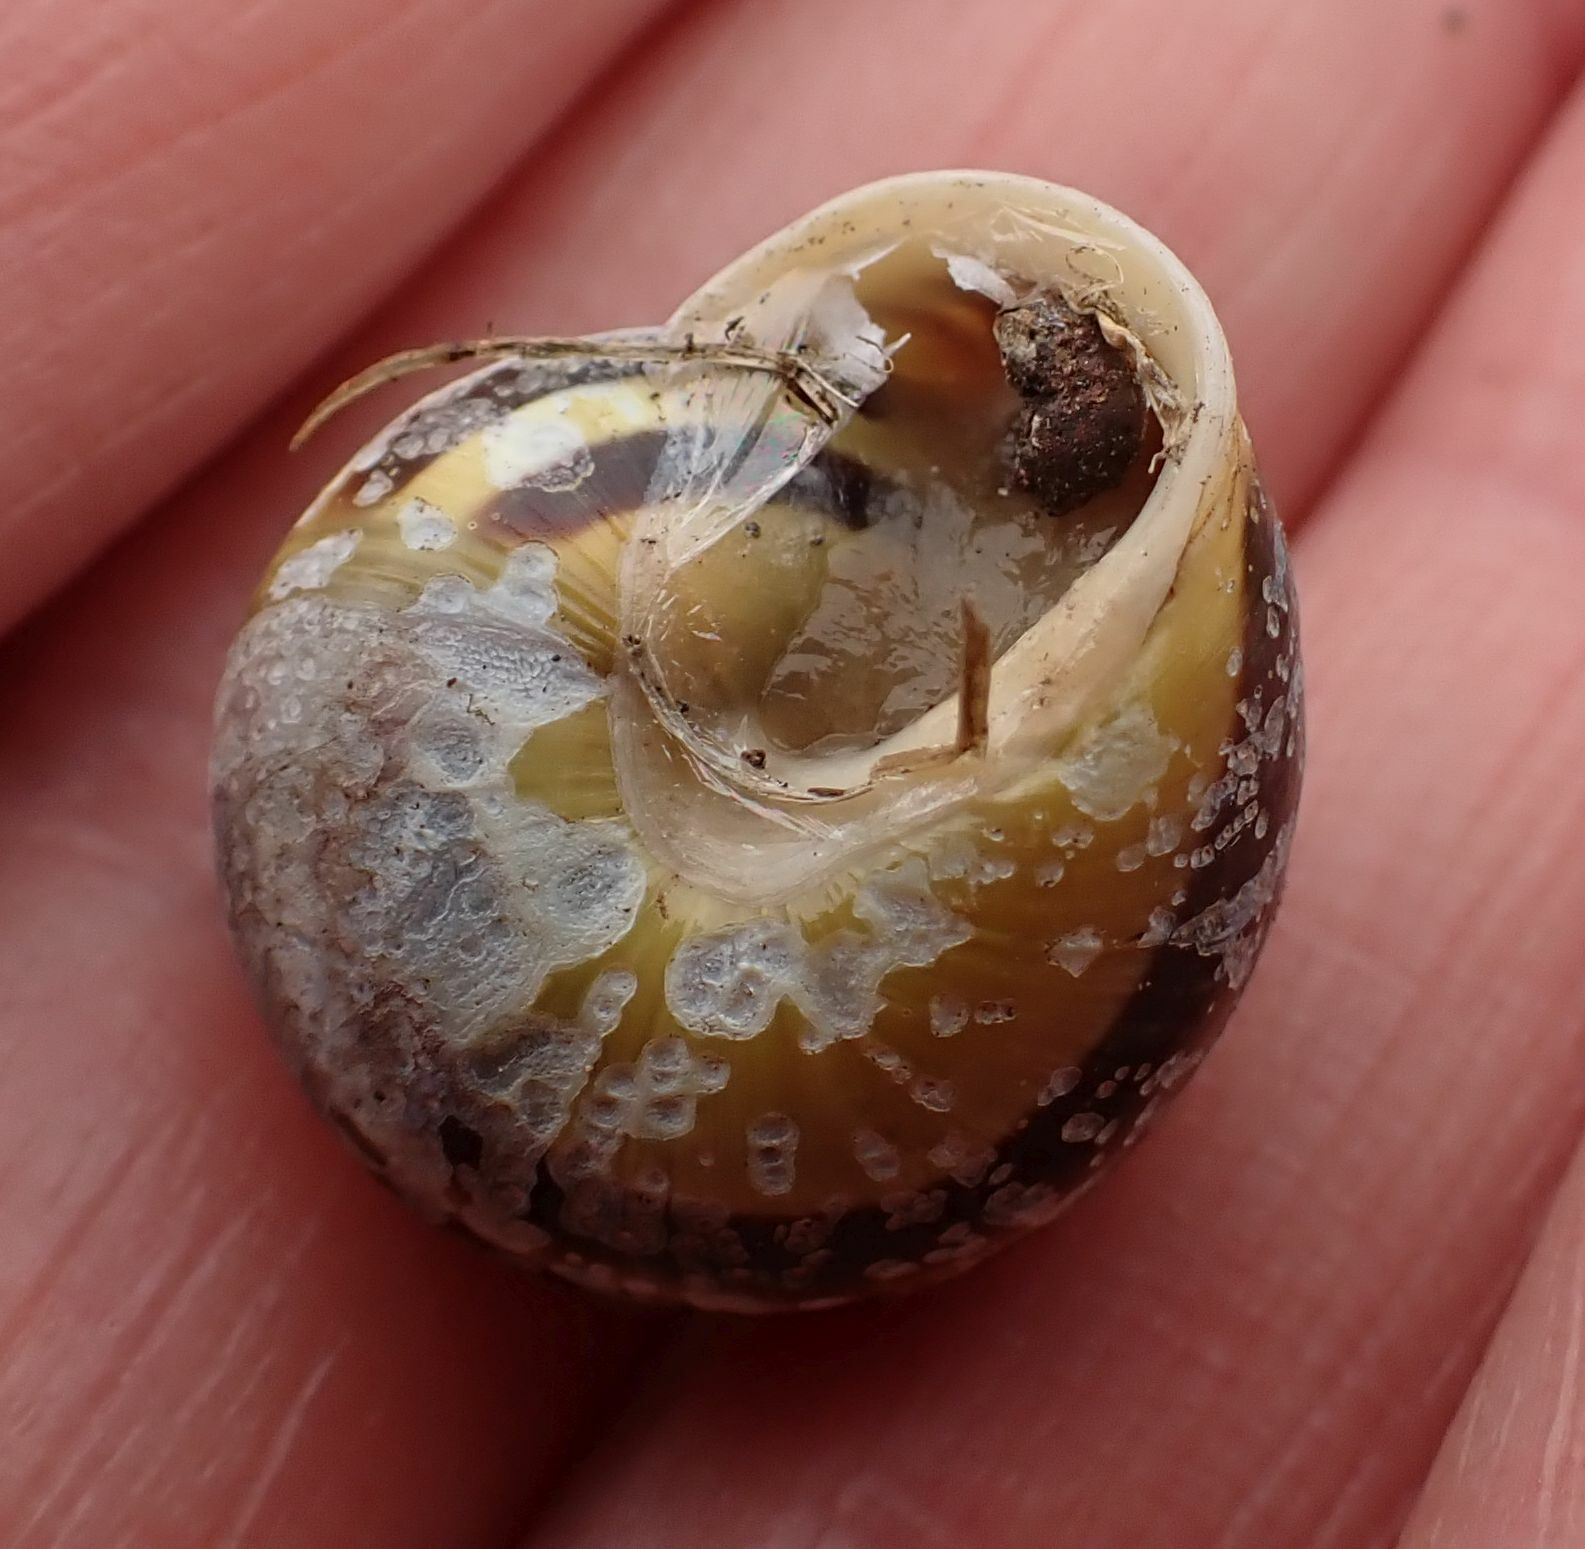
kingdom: Animalia
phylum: Mollusca
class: Gastropoda
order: Stylommatophora
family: Helicidae
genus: Cepaea
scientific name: Cepaea hortensis
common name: White-lip gardensnail
